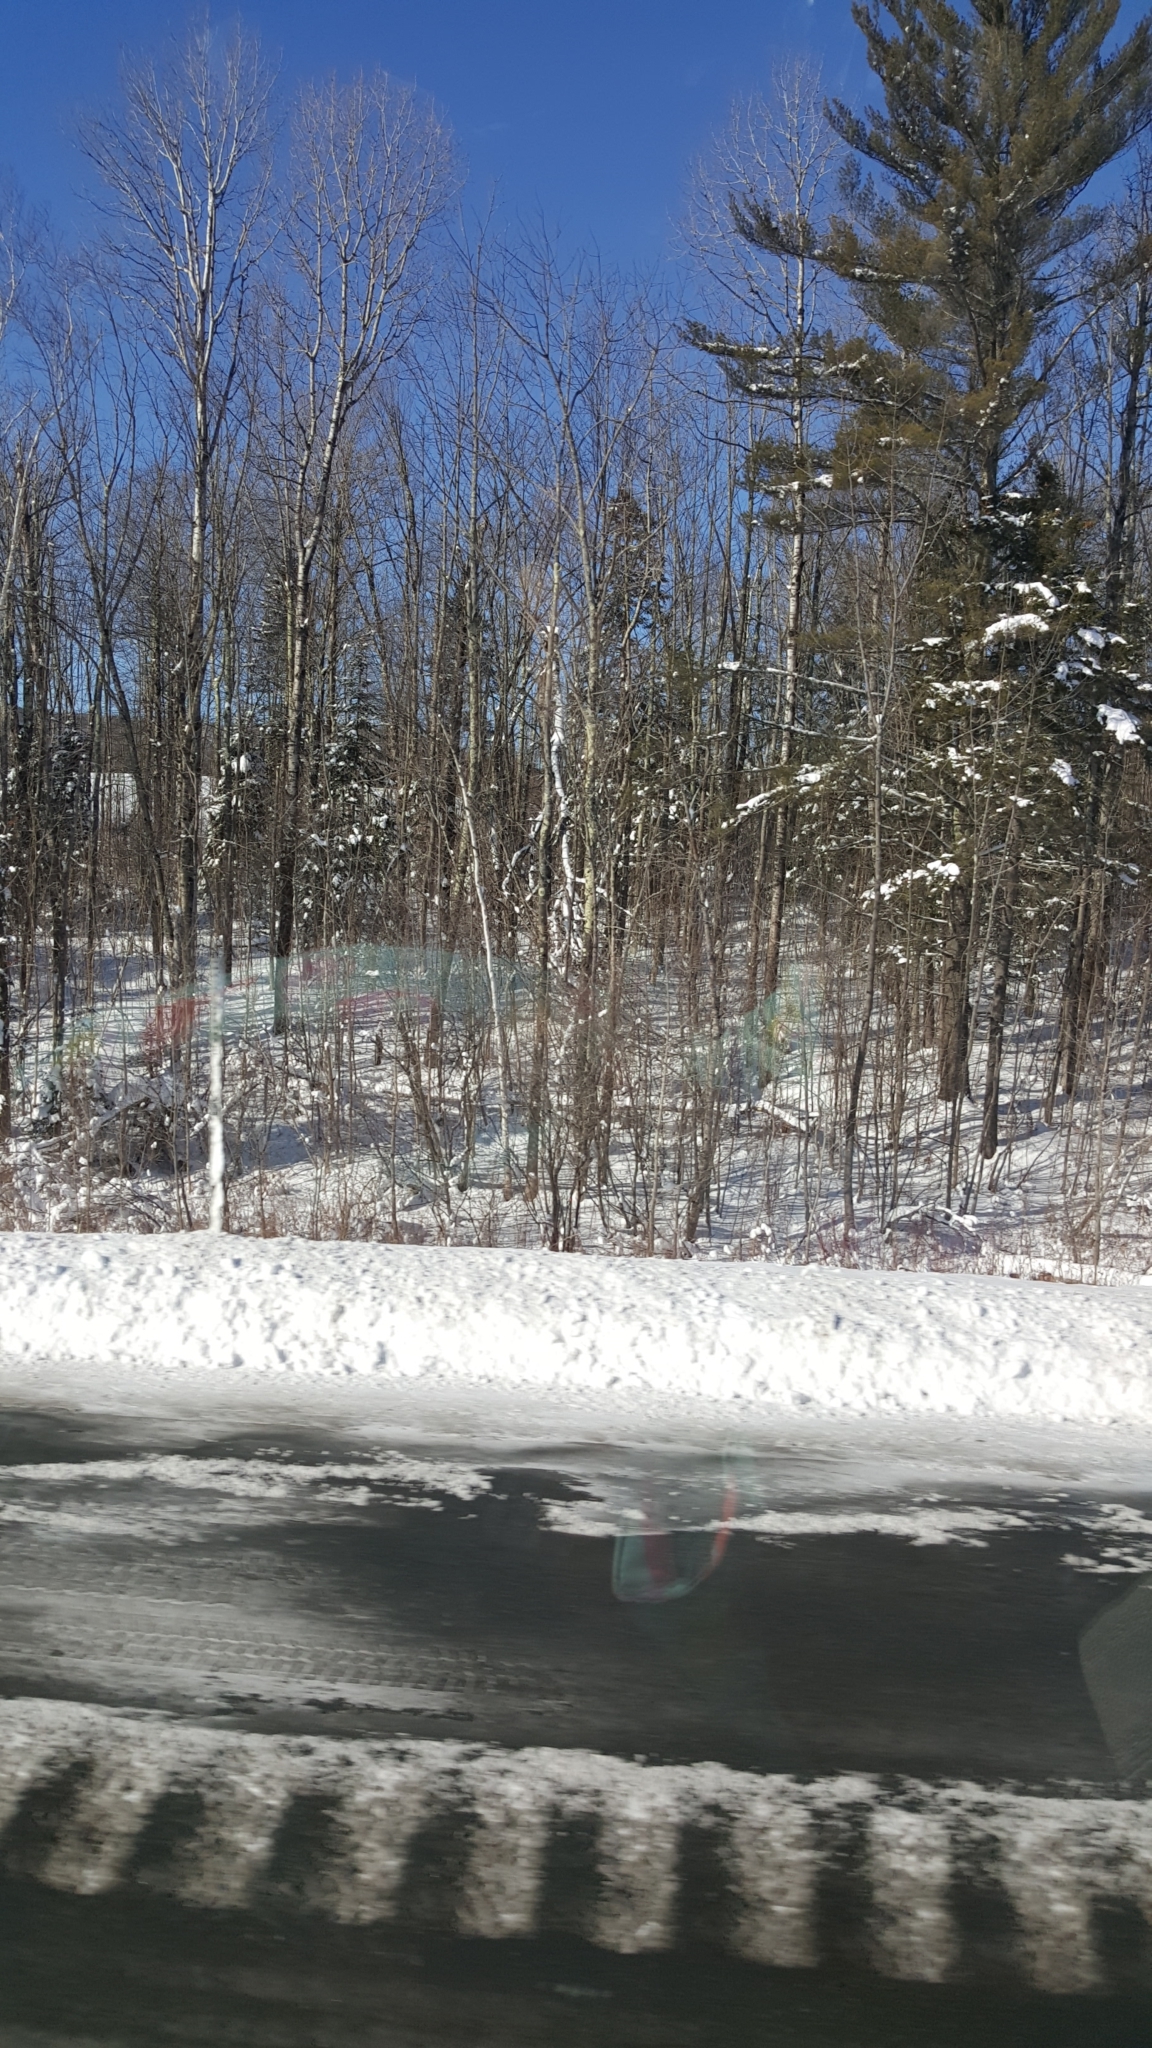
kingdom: Plantae
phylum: Tracheophyta
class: Pinopsida
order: Pinales
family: Pinaceae
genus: Pinus
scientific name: Pinus strobus
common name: Weymouth pine
